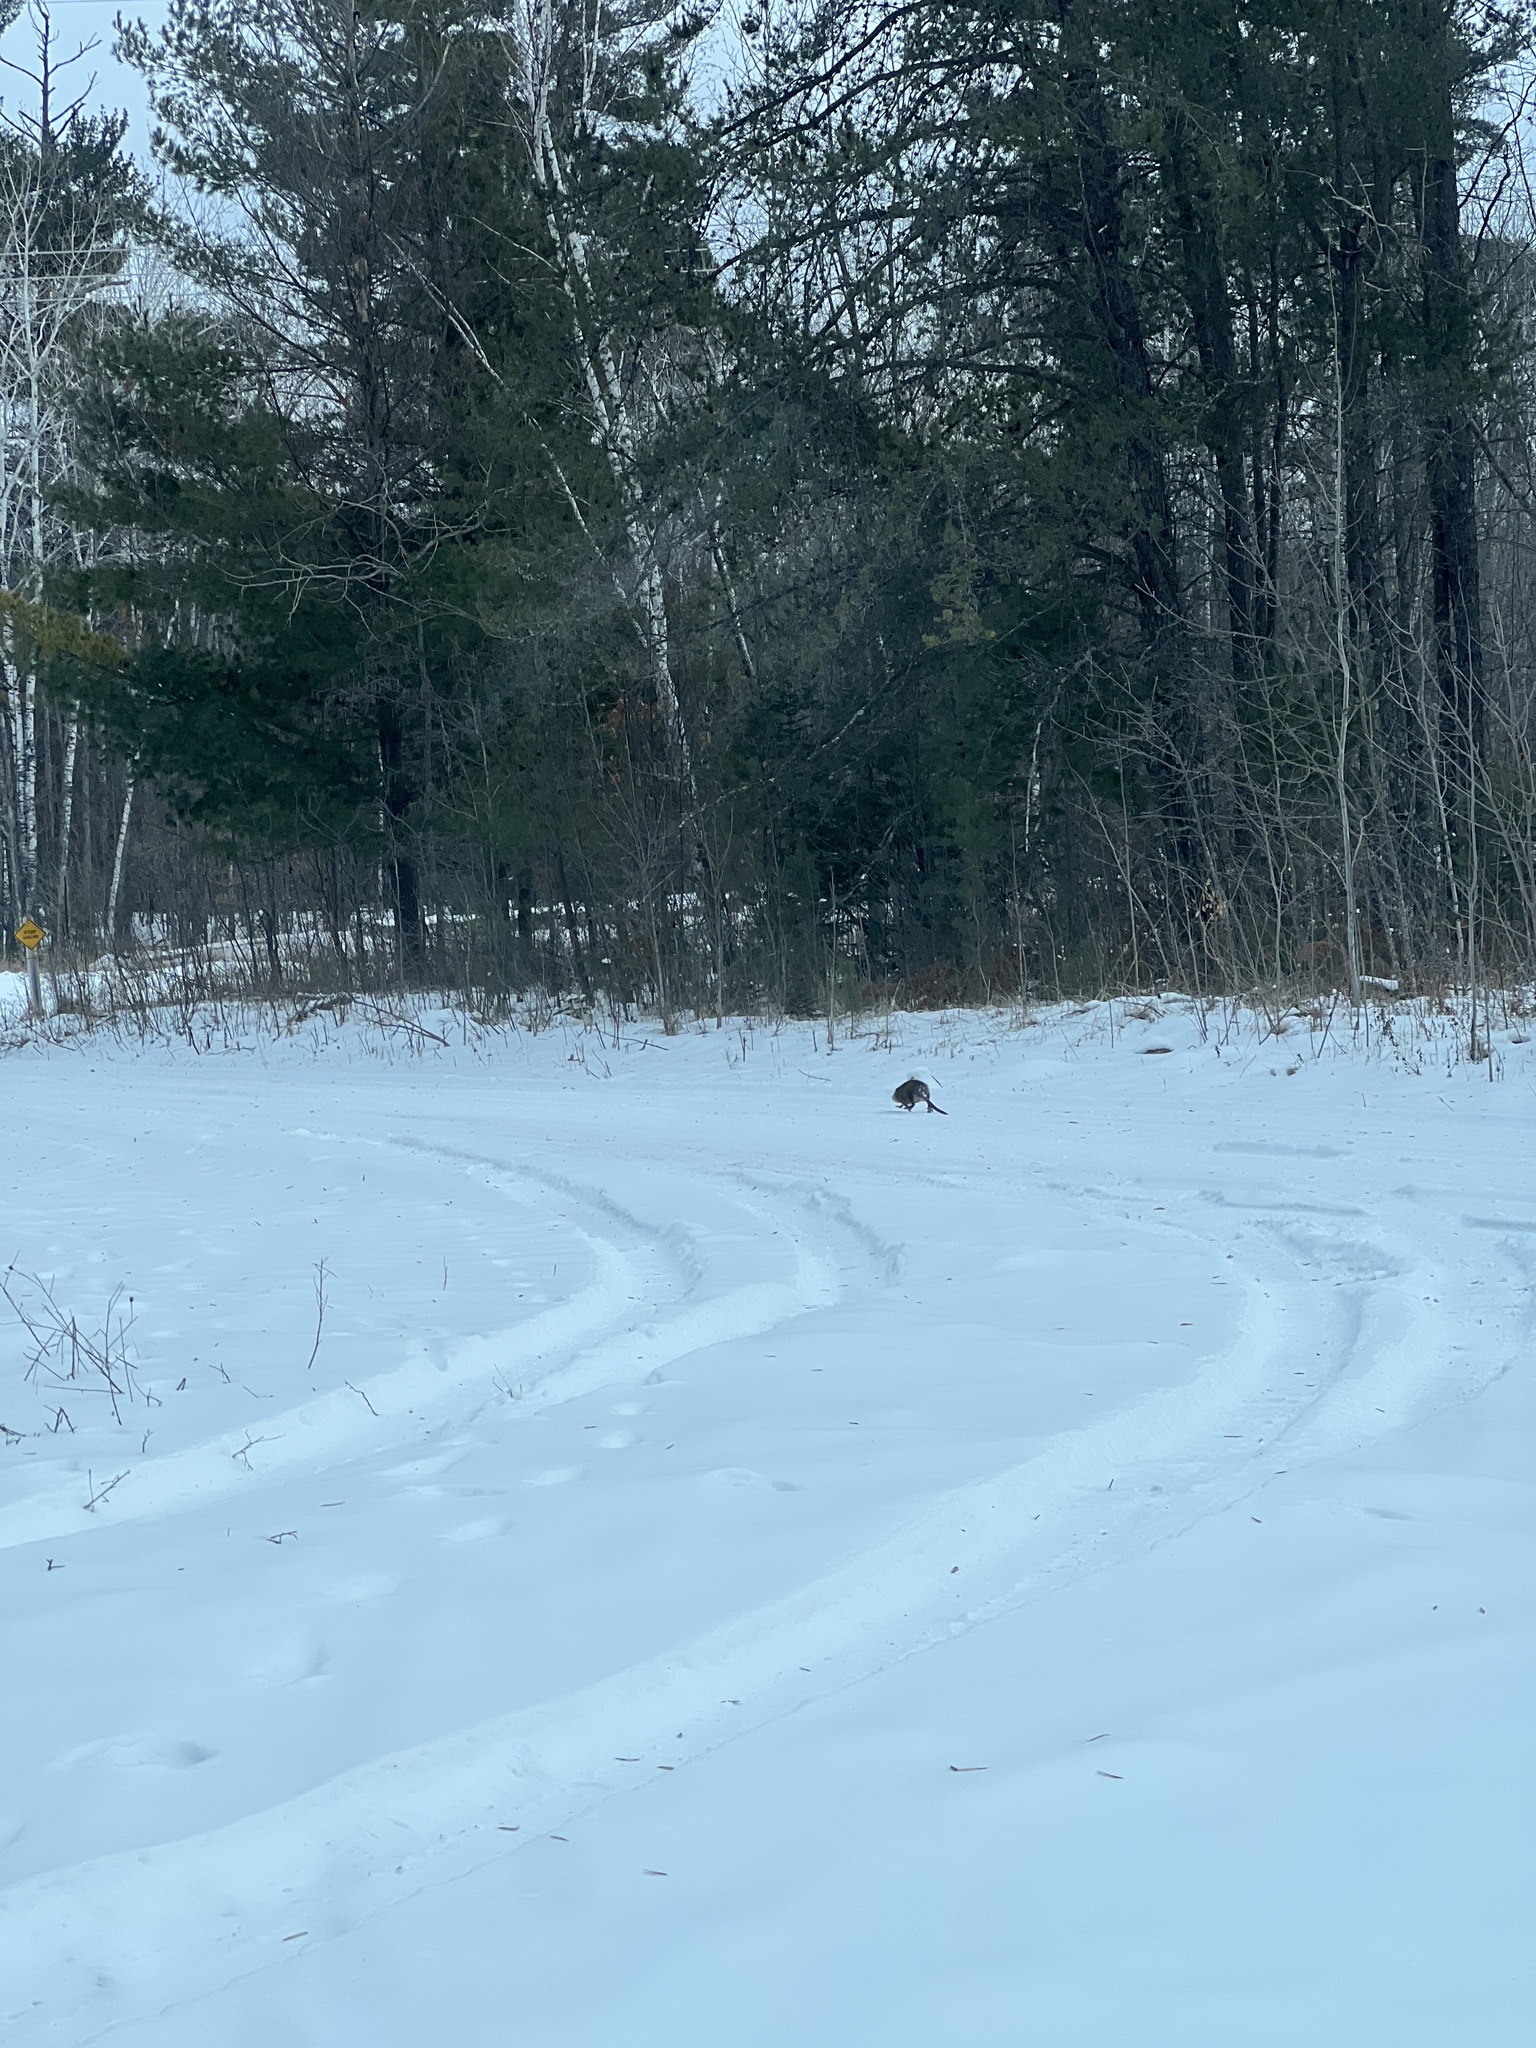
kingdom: Animalia
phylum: Chordata
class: Mammalia
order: Rodentia
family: Cricetidae
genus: Ondatra
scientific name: Ondatra zibethicus
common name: Muskrat
